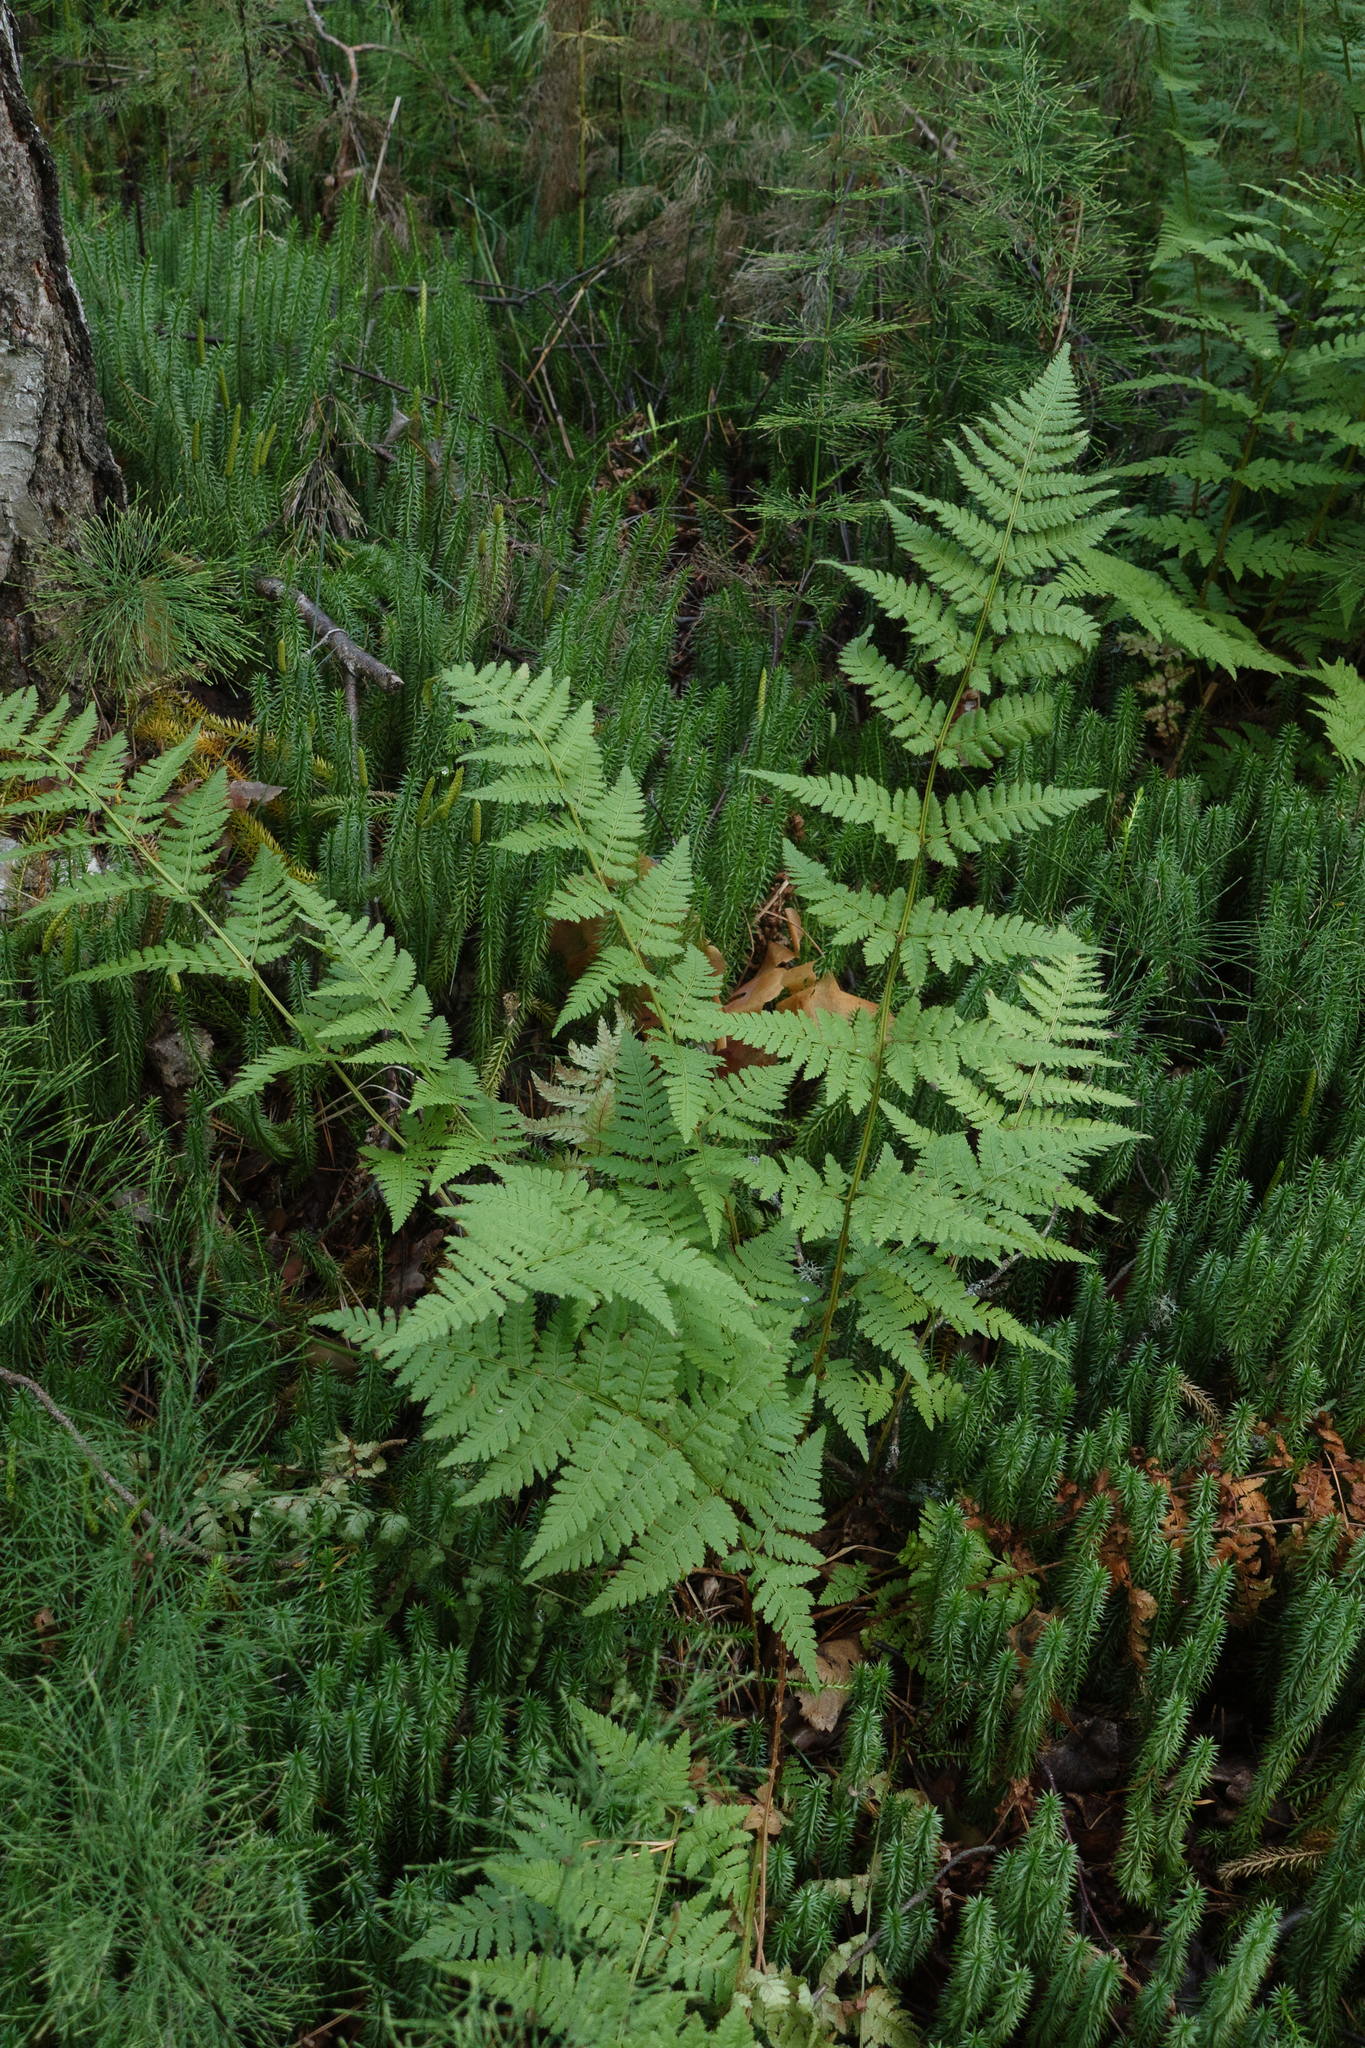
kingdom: Plantae
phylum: Tracheophyta
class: Polypodiopsida
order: Polypodiales
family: Dryopteridaceae
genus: Dryopteris
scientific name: Dryopteris carthusiana
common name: Narrow buckler-fern
